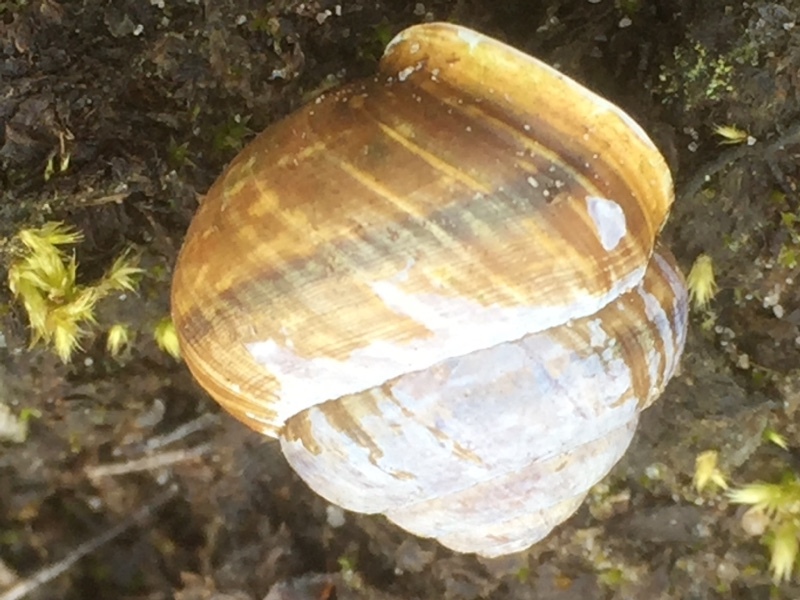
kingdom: Animalia
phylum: Mollusca
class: Gastropoda
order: Stylommatophora
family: Helicidae
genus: Cornu
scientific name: Cornu aspersum
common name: Brown garden snail
